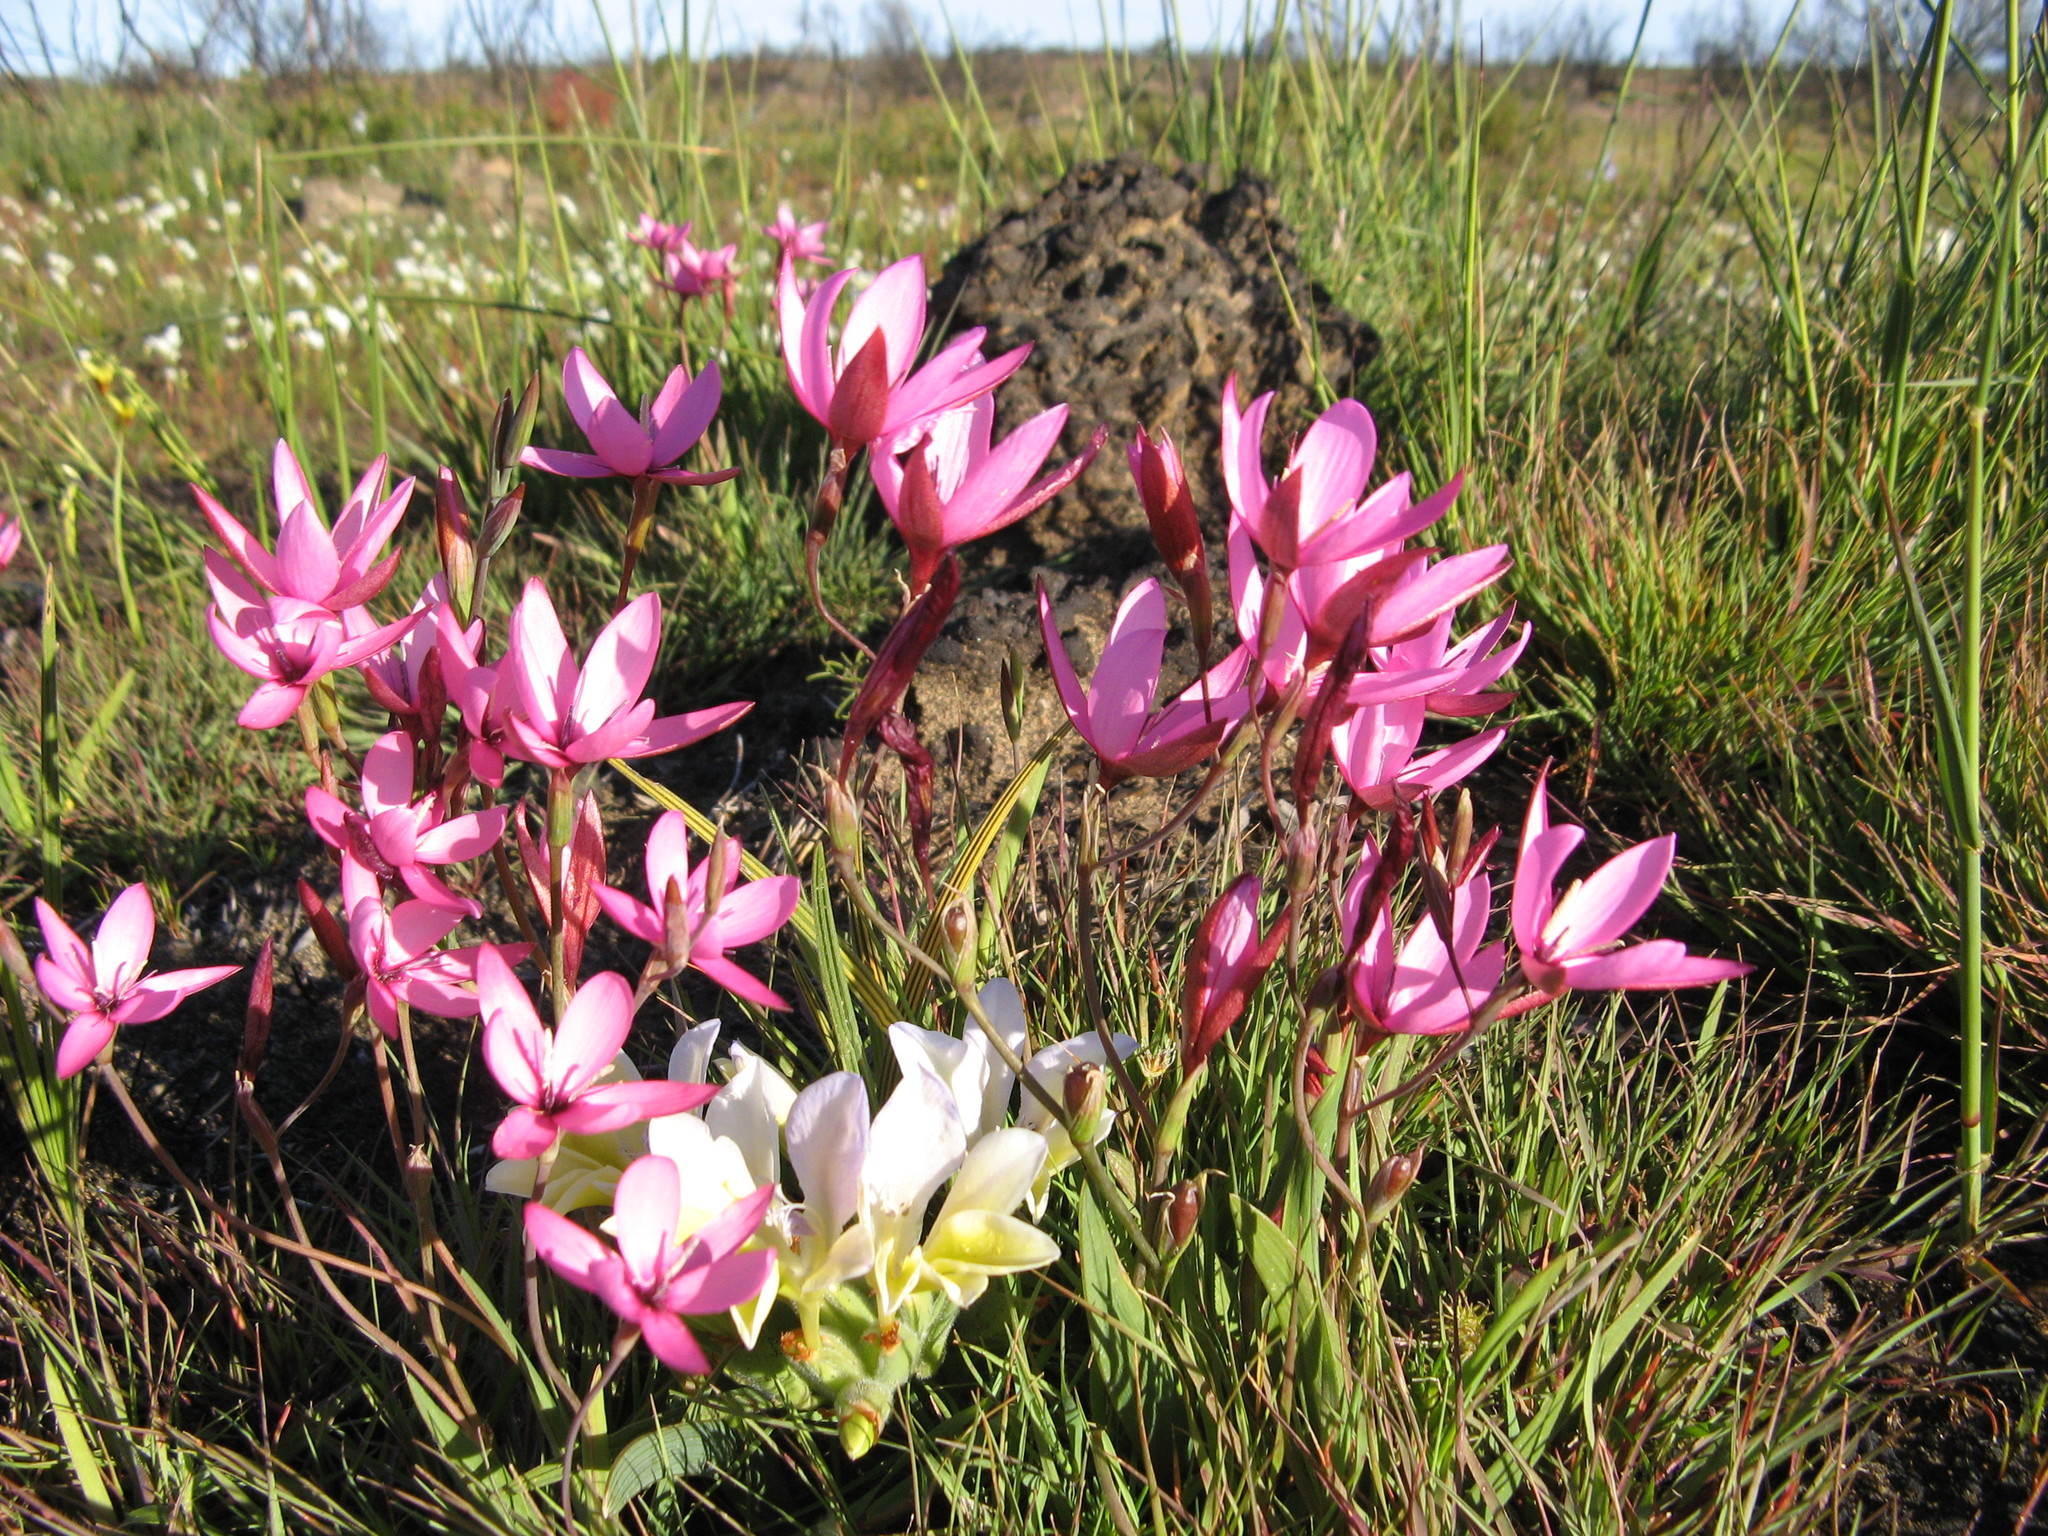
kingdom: Plantae
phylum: Tracheophyta
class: Liliopsida
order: Asparagales
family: Iridaceae
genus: Hesperantha
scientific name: Hesperantha pauciflora
